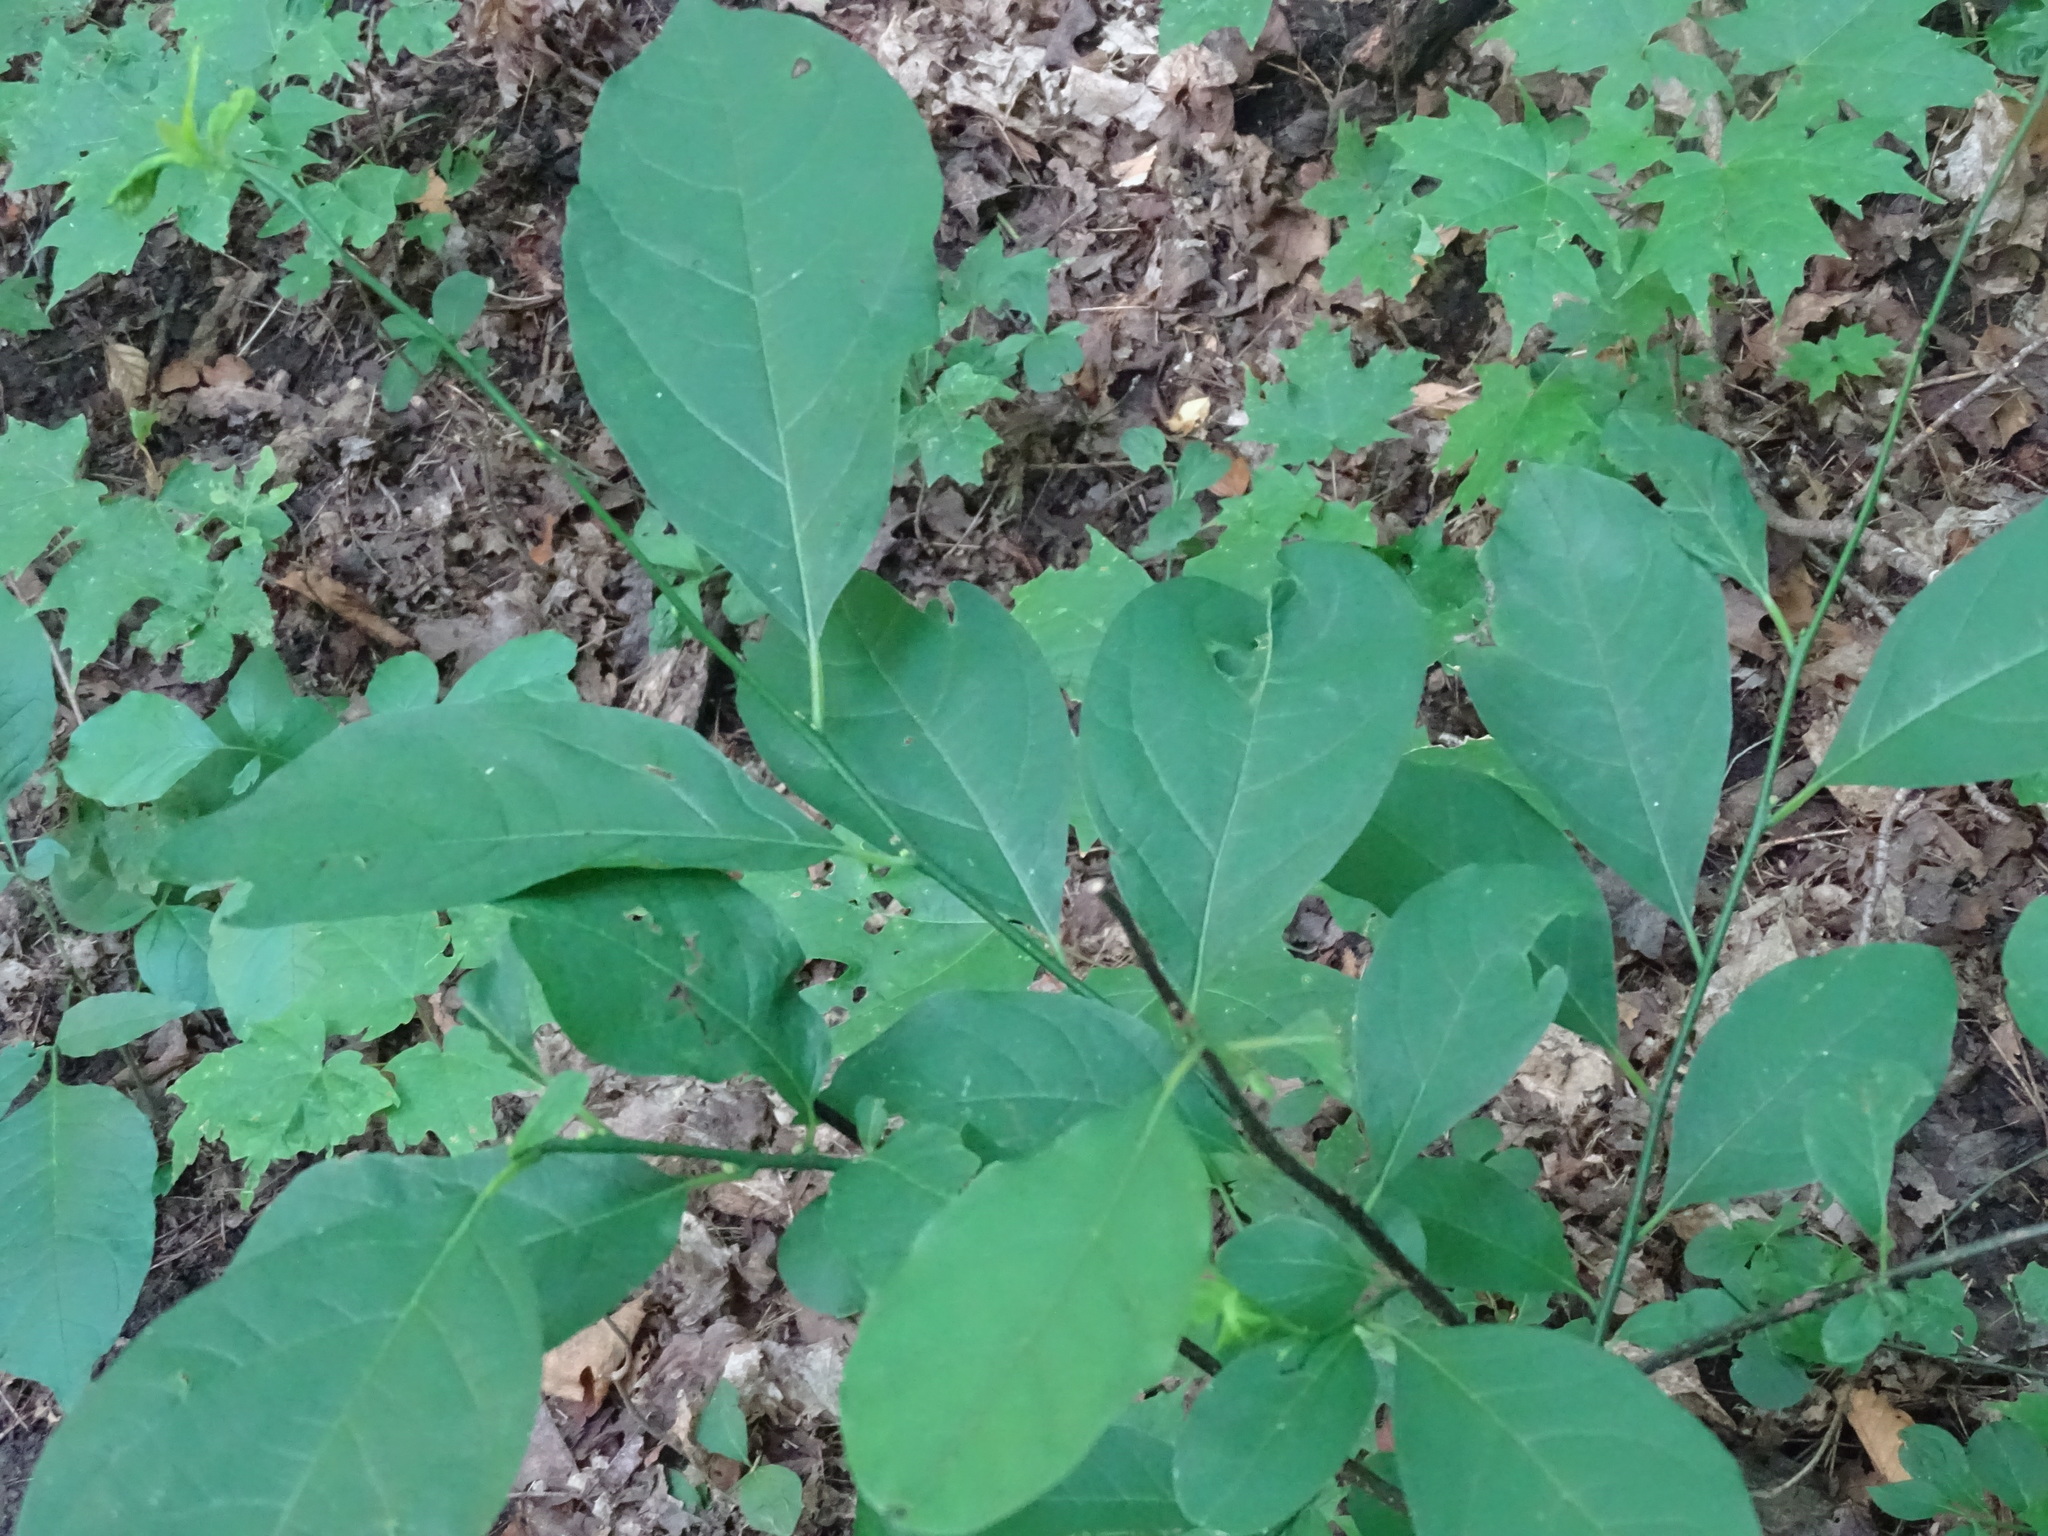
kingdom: Plantae
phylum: Tracheophyta
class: Magnoliopsida
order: Laurales
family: Lauraceae
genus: Lindera
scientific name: Lindera benzoin
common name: Spicebush
